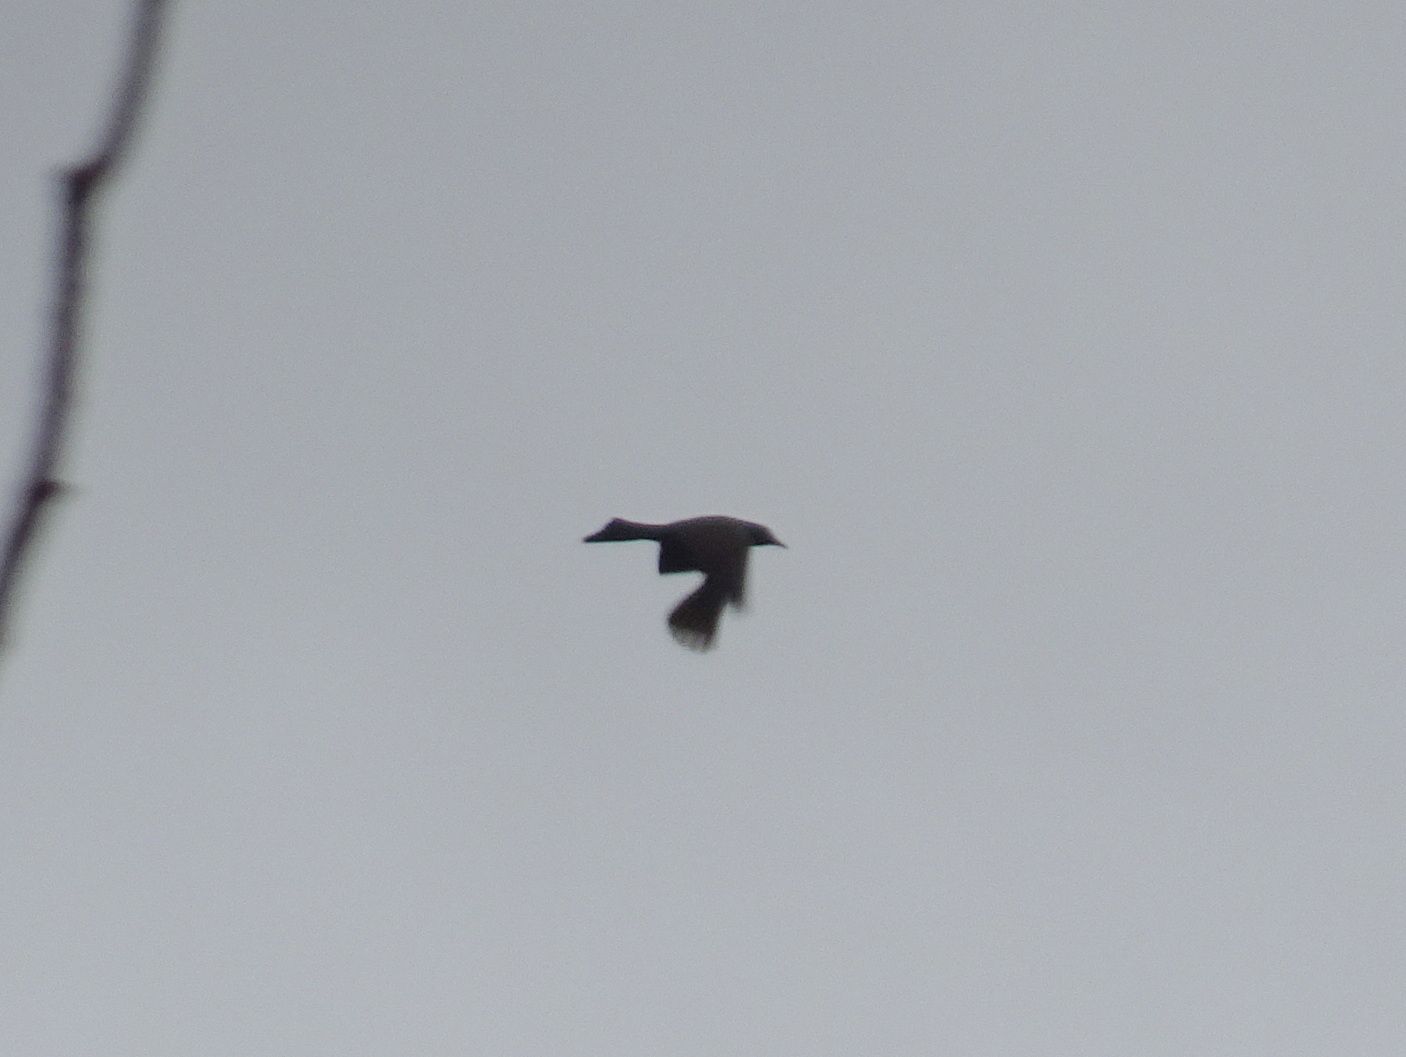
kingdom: Animalia
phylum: Chordata
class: Aves
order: Passeriformes
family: Icteridae
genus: Quiscalus
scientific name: Quiscalus quiscula
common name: Common grackle
